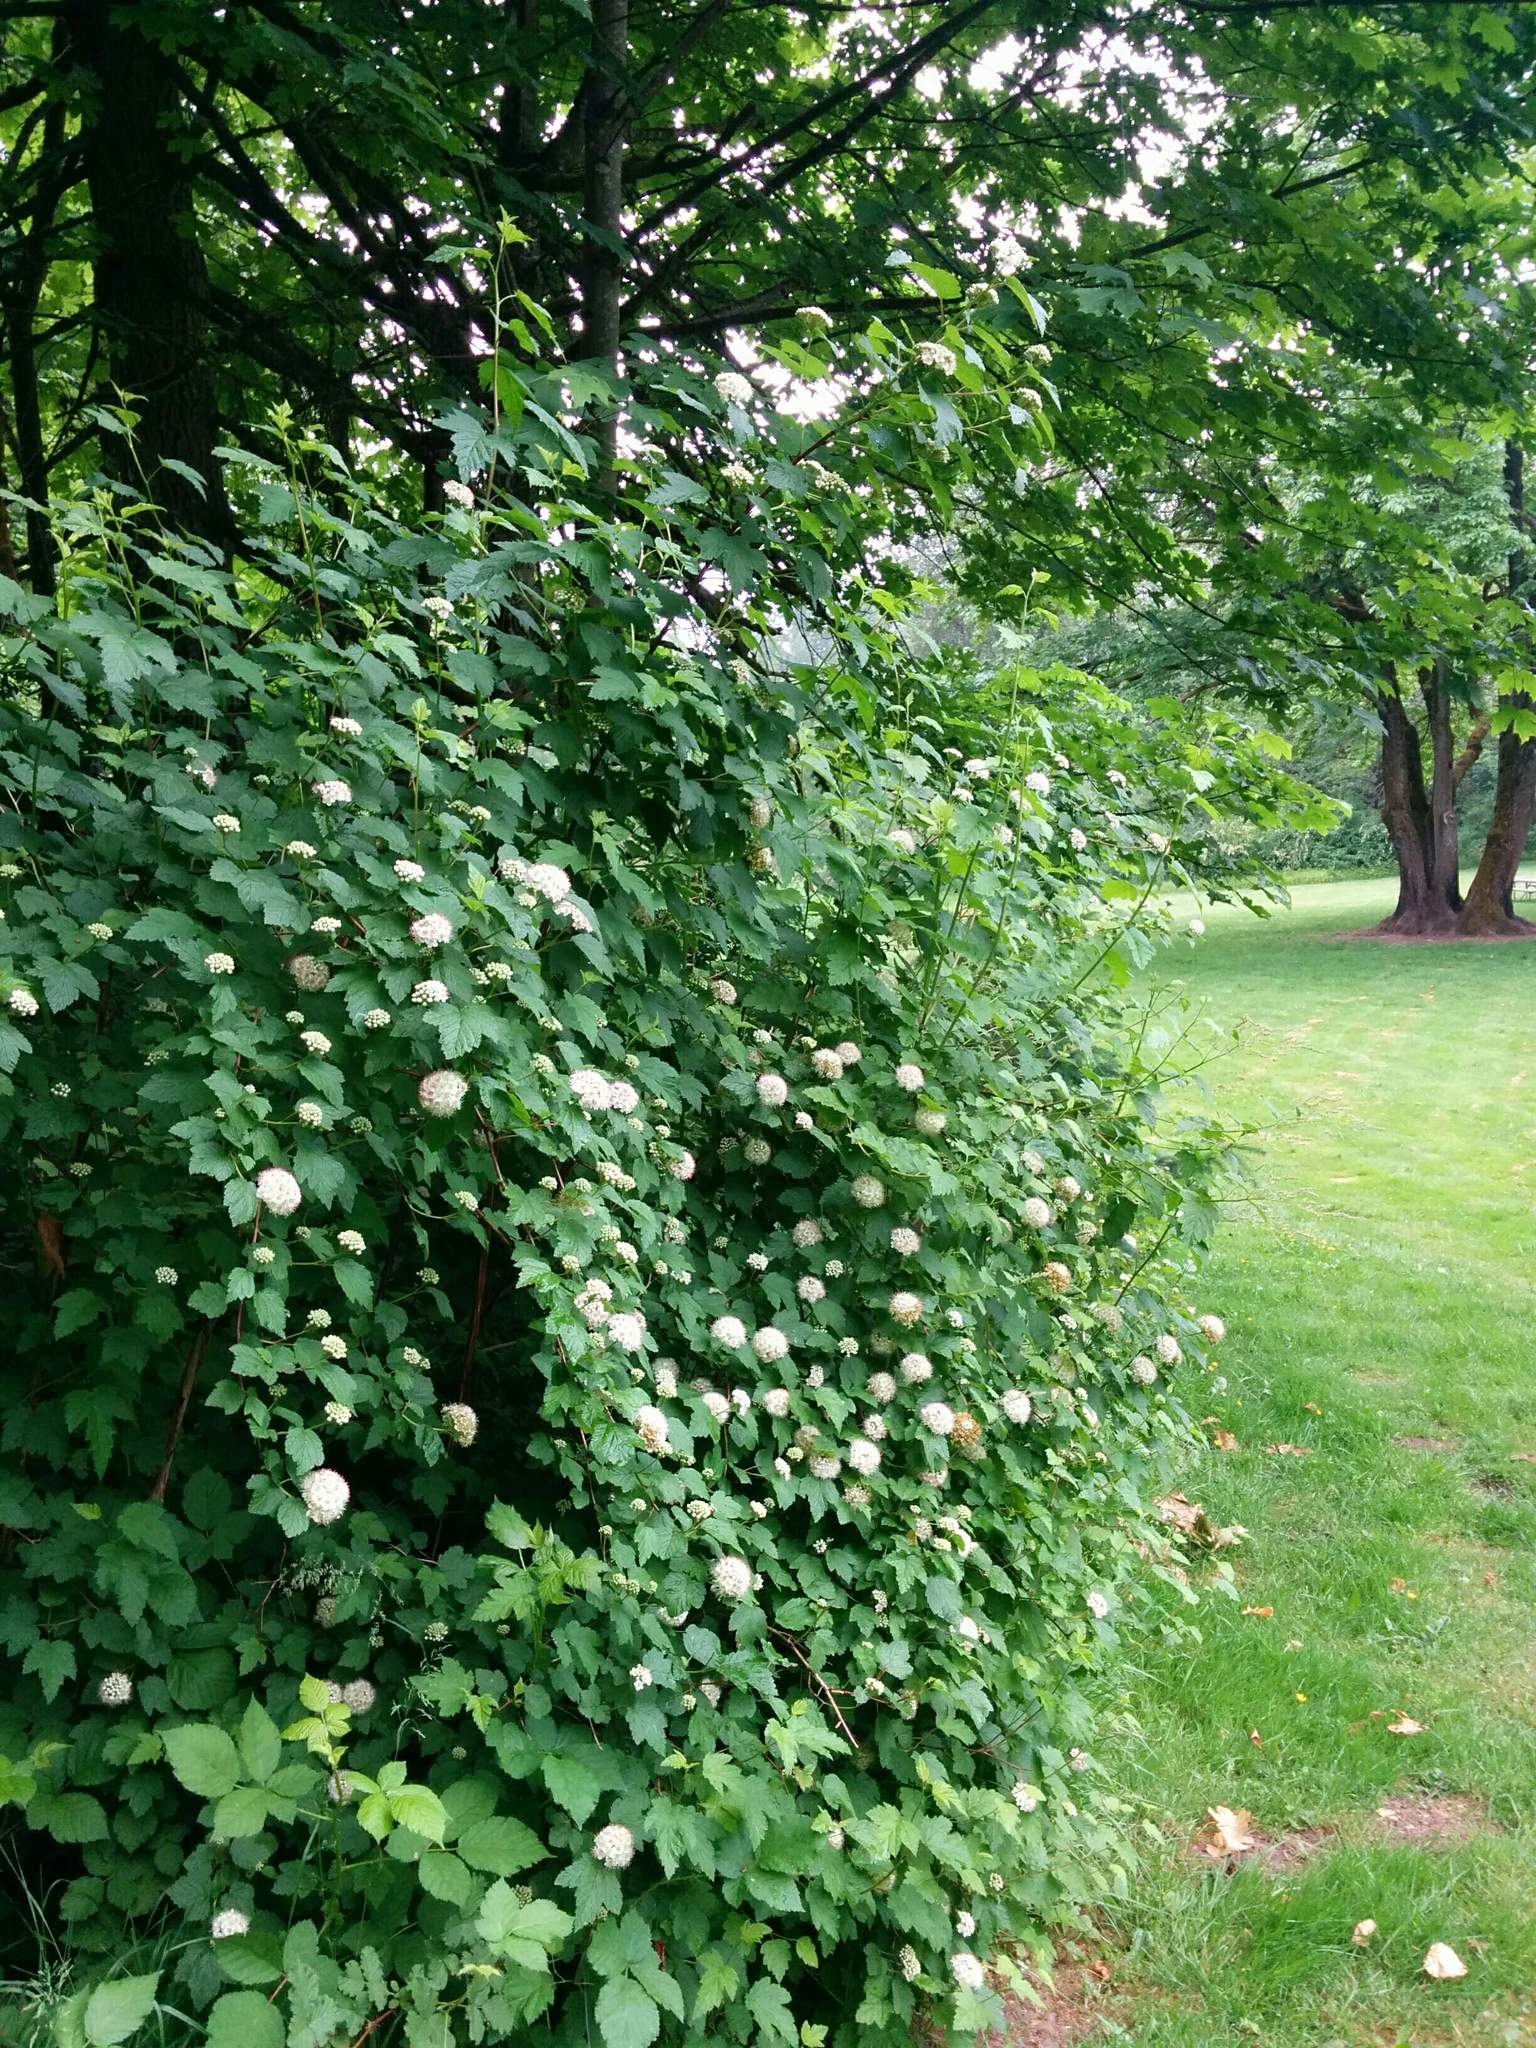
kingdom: Plantae
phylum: Tracheophyta
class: Magnoliopsida
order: Rosales
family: Rosaceae
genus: Physocarpus
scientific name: Physocarpus capitatus
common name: Pacific ninebark
